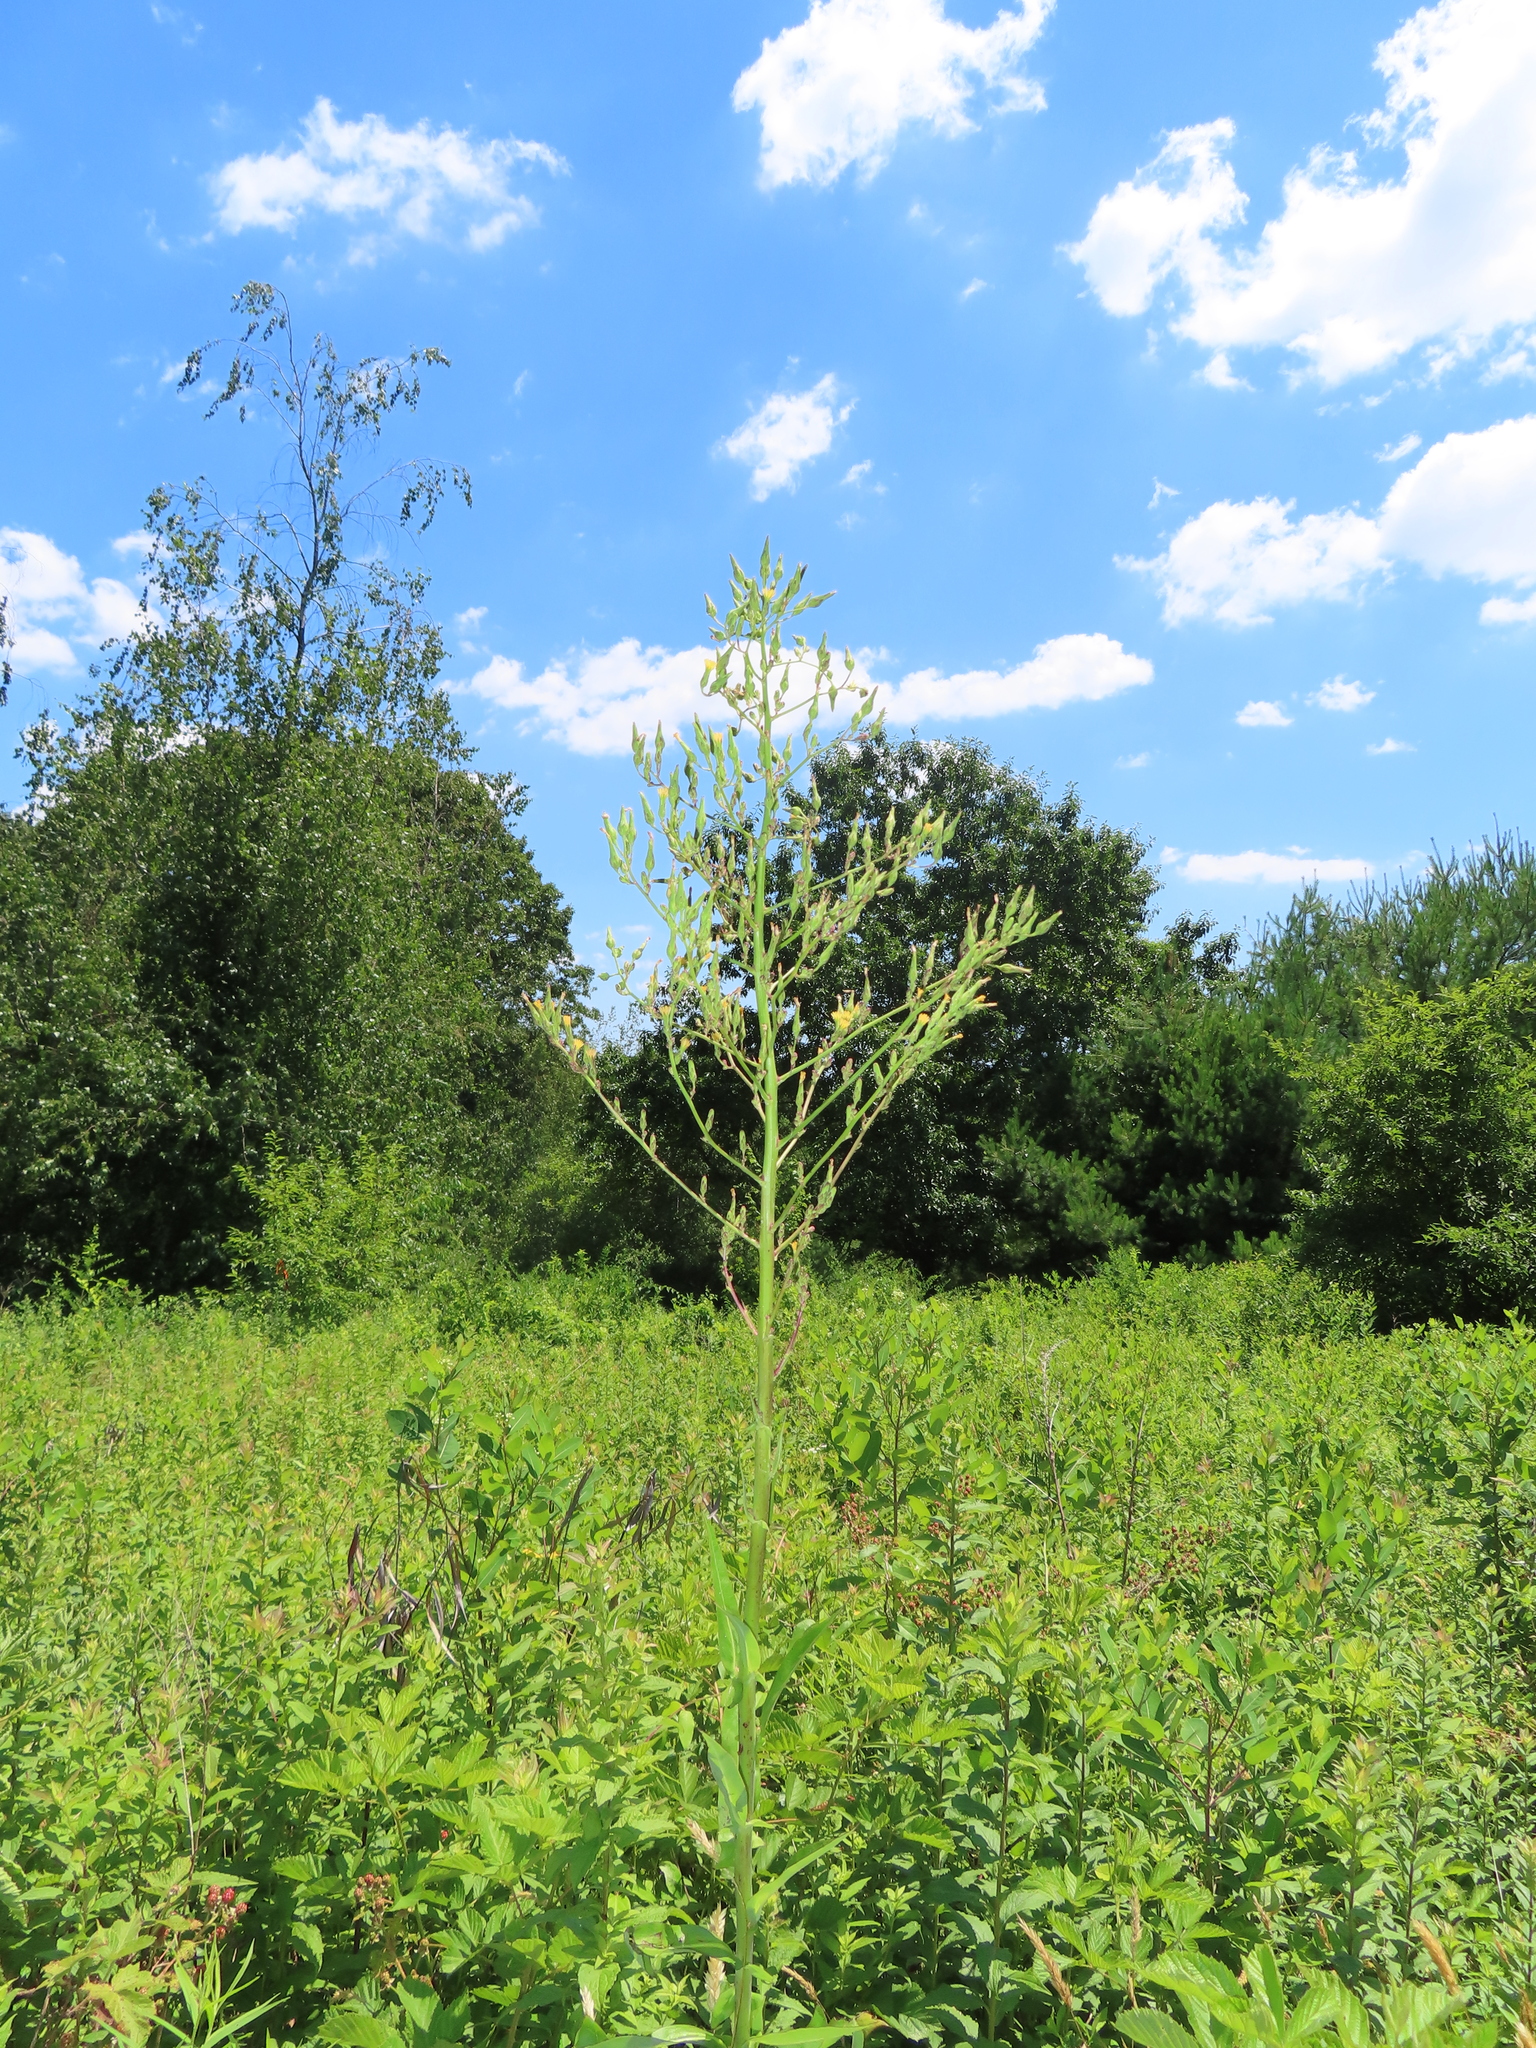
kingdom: Plantae
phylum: Tracheophyta
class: Magnoliopsida
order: Asterales
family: Asteraceae
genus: Lactuca
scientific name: Lactuca canadensis
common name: Canada lettuce
